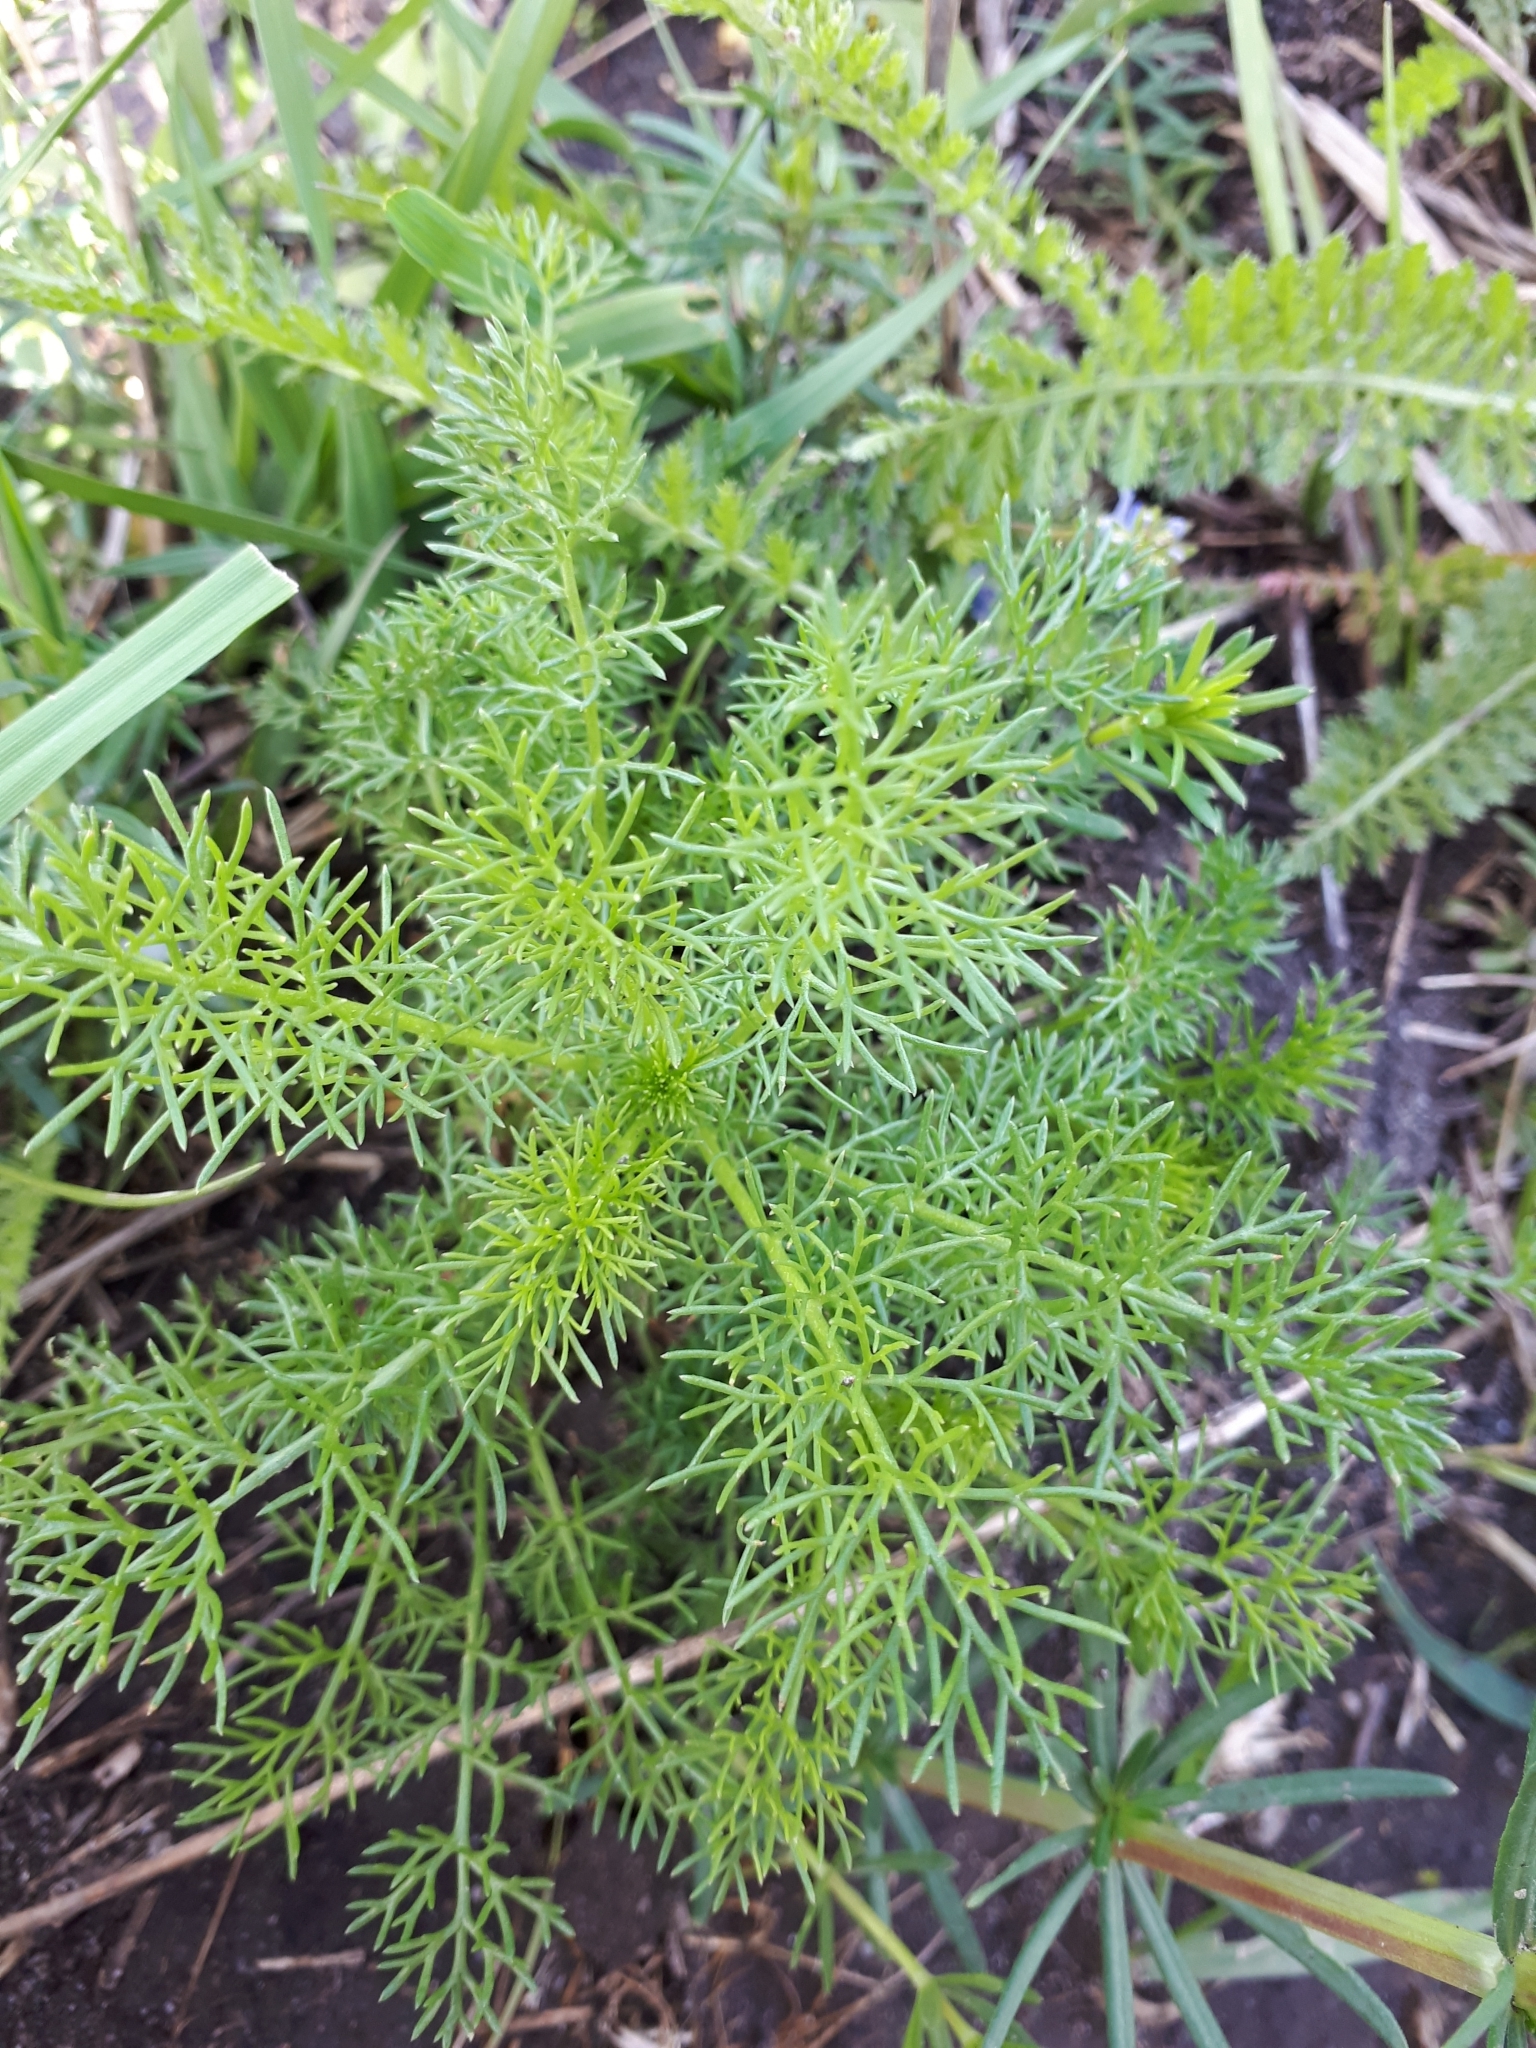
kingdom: Plantae
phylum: Tracheophyta
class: Magnoliopsida
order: Asterales
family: Asteraceae
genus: Tripleurospermum
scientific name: Tripleurospermum inodorum
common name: Scentless mayweed
